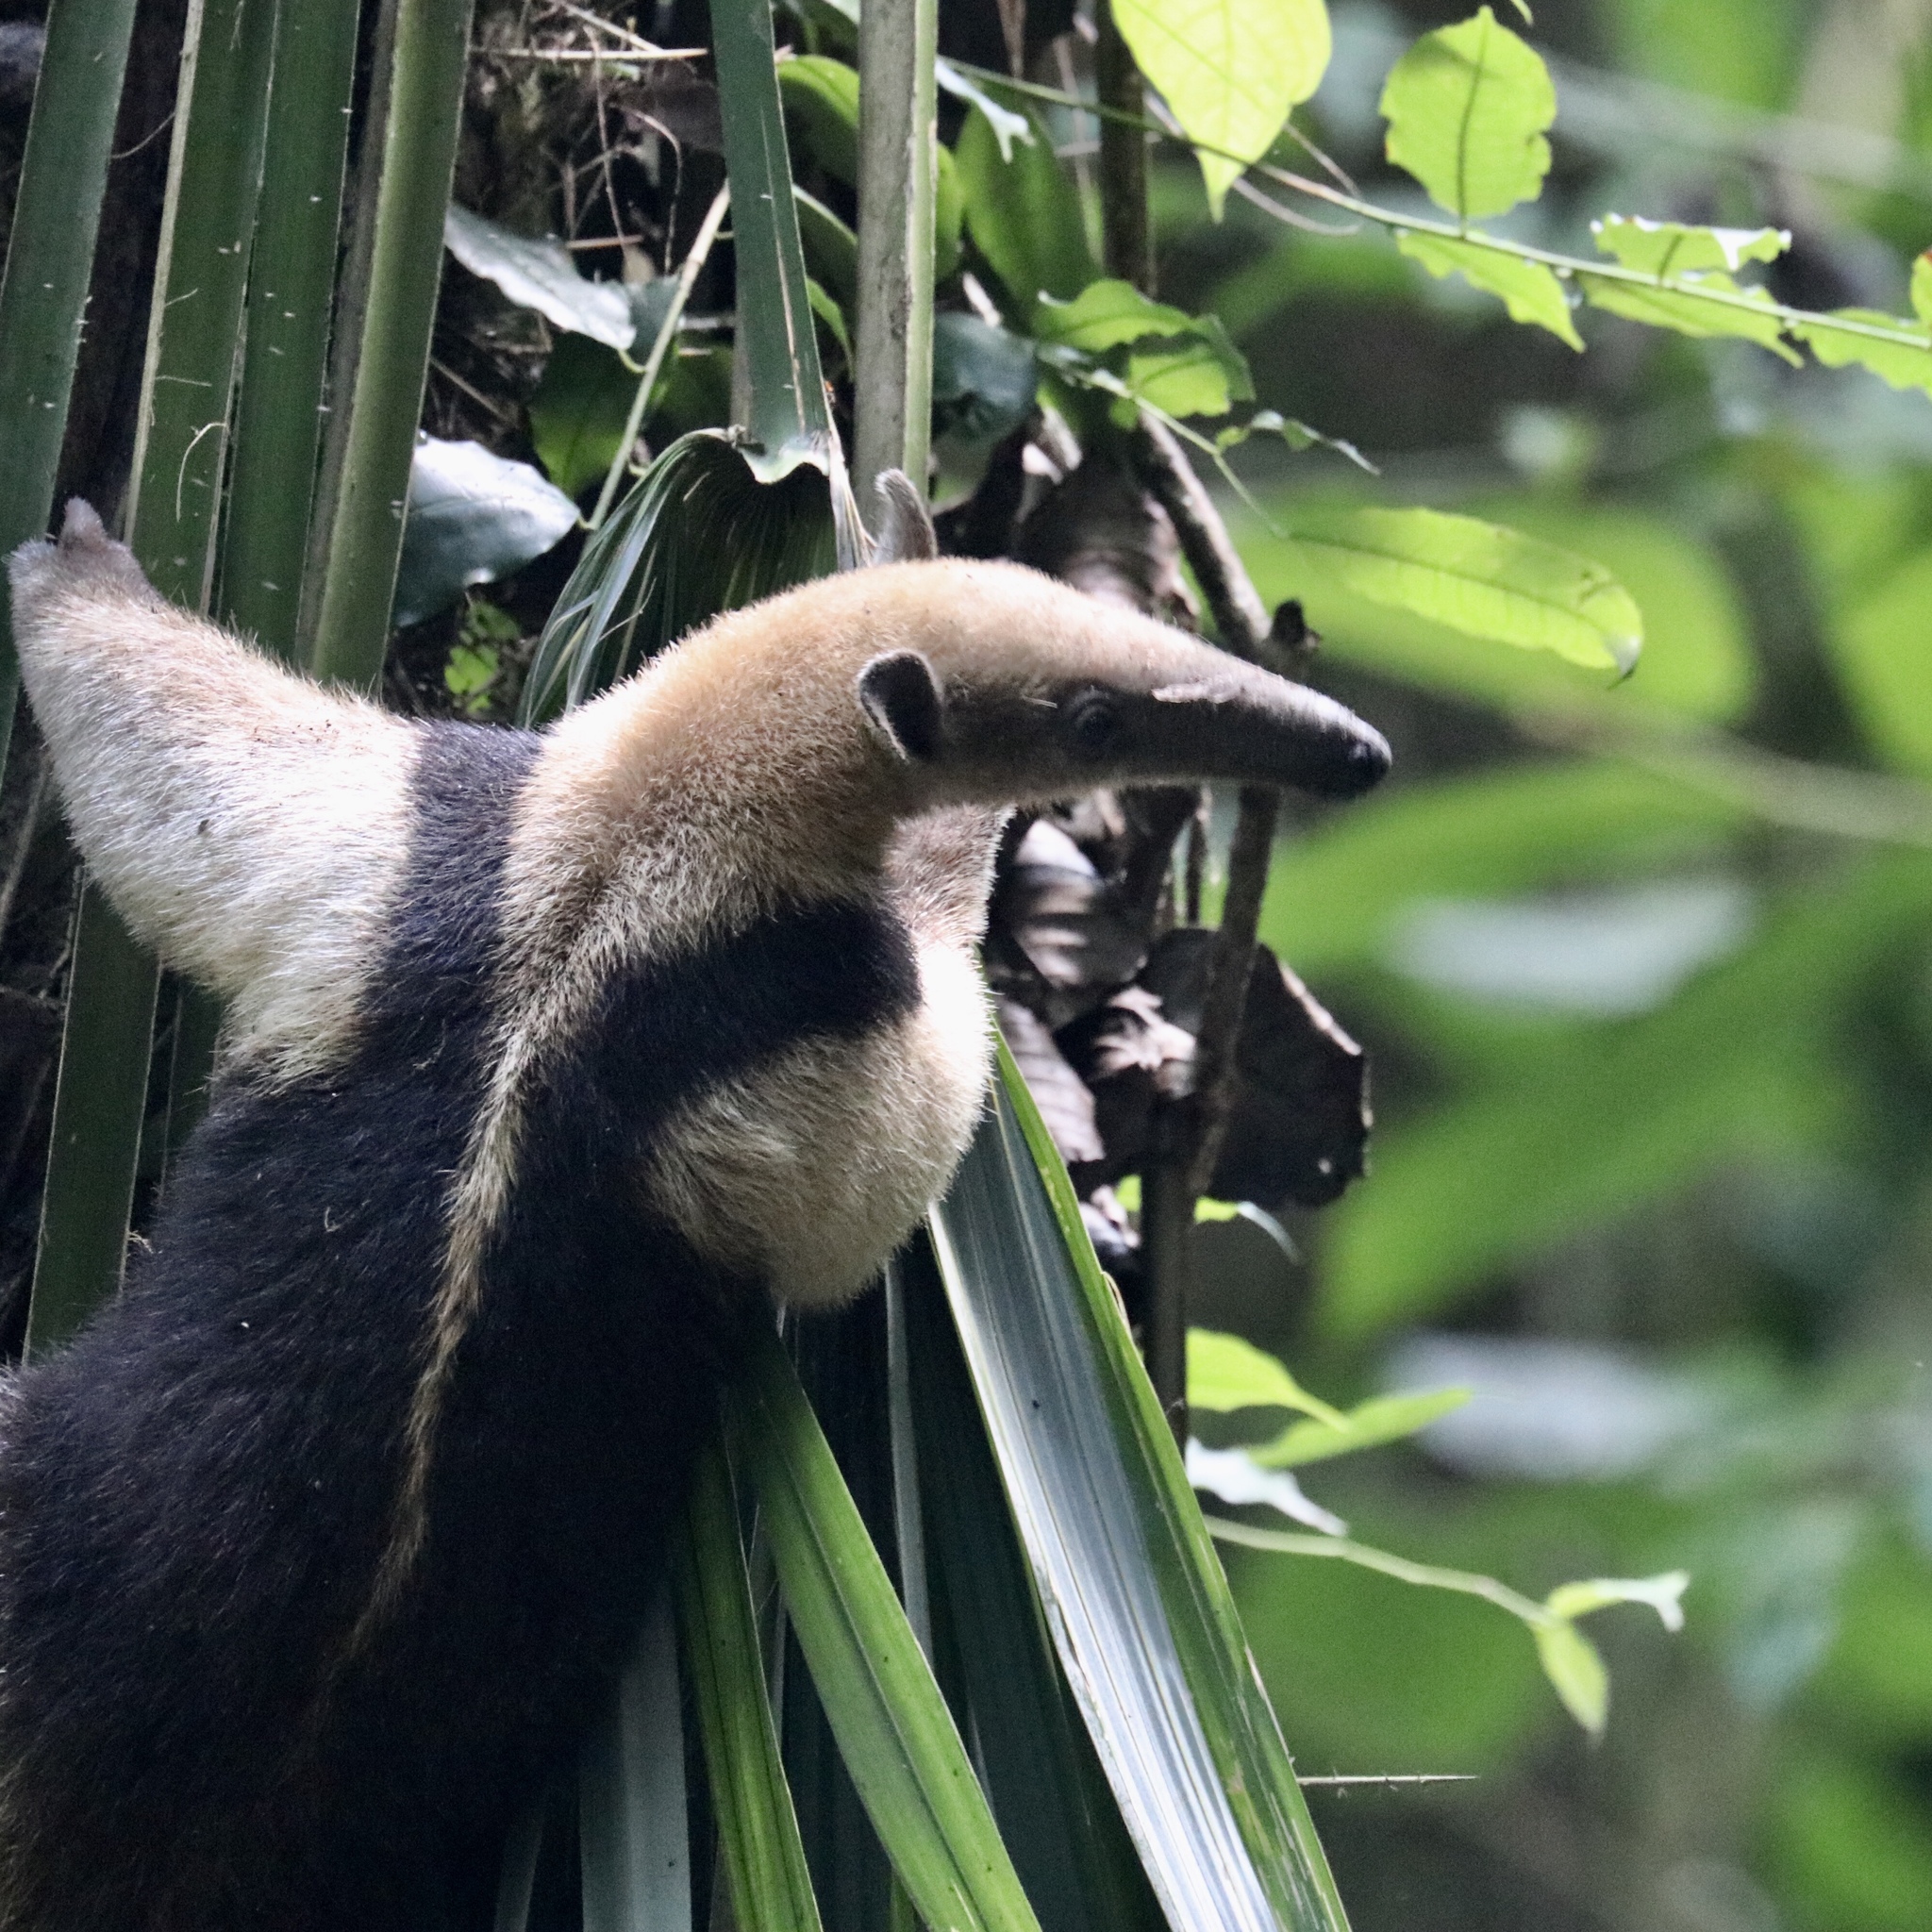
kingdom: Animalia
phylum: Chordata
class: Mammalia
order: Pilosa
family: Myrmecophagidae
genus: Tamandua
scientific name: Tamandua mexicana
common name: Northern tamandua
